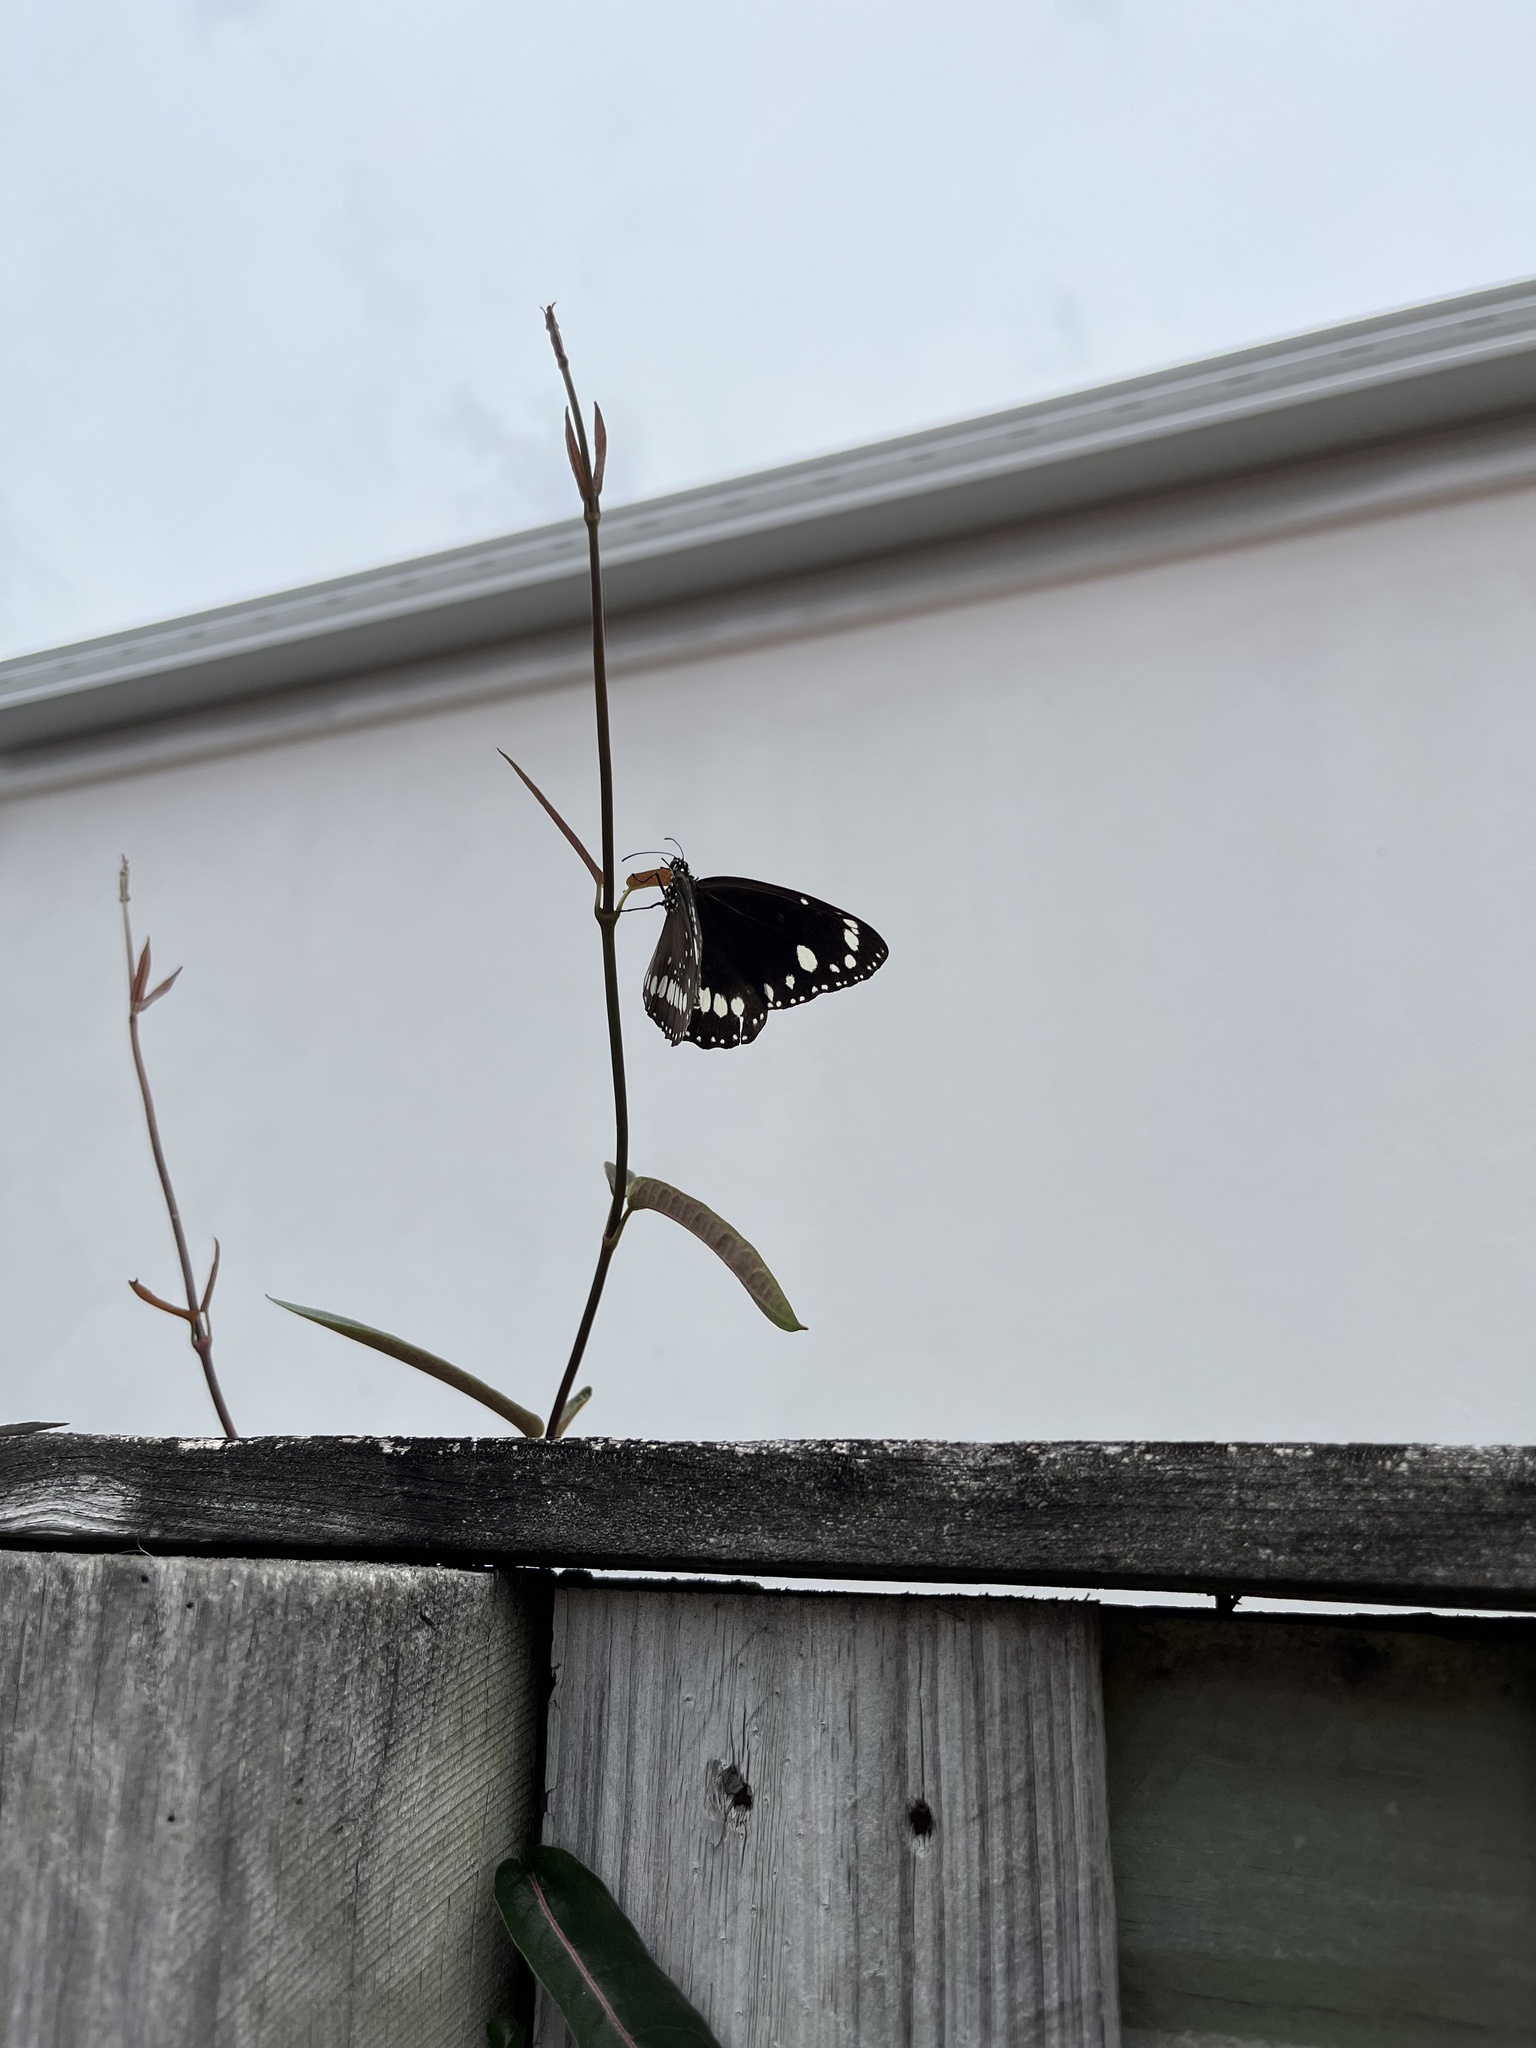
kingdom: Animalia
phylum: Arthropoda
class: Insecta
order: Lepidoptera
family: Nymphalidae
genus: Euploea
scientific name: Euploea core
